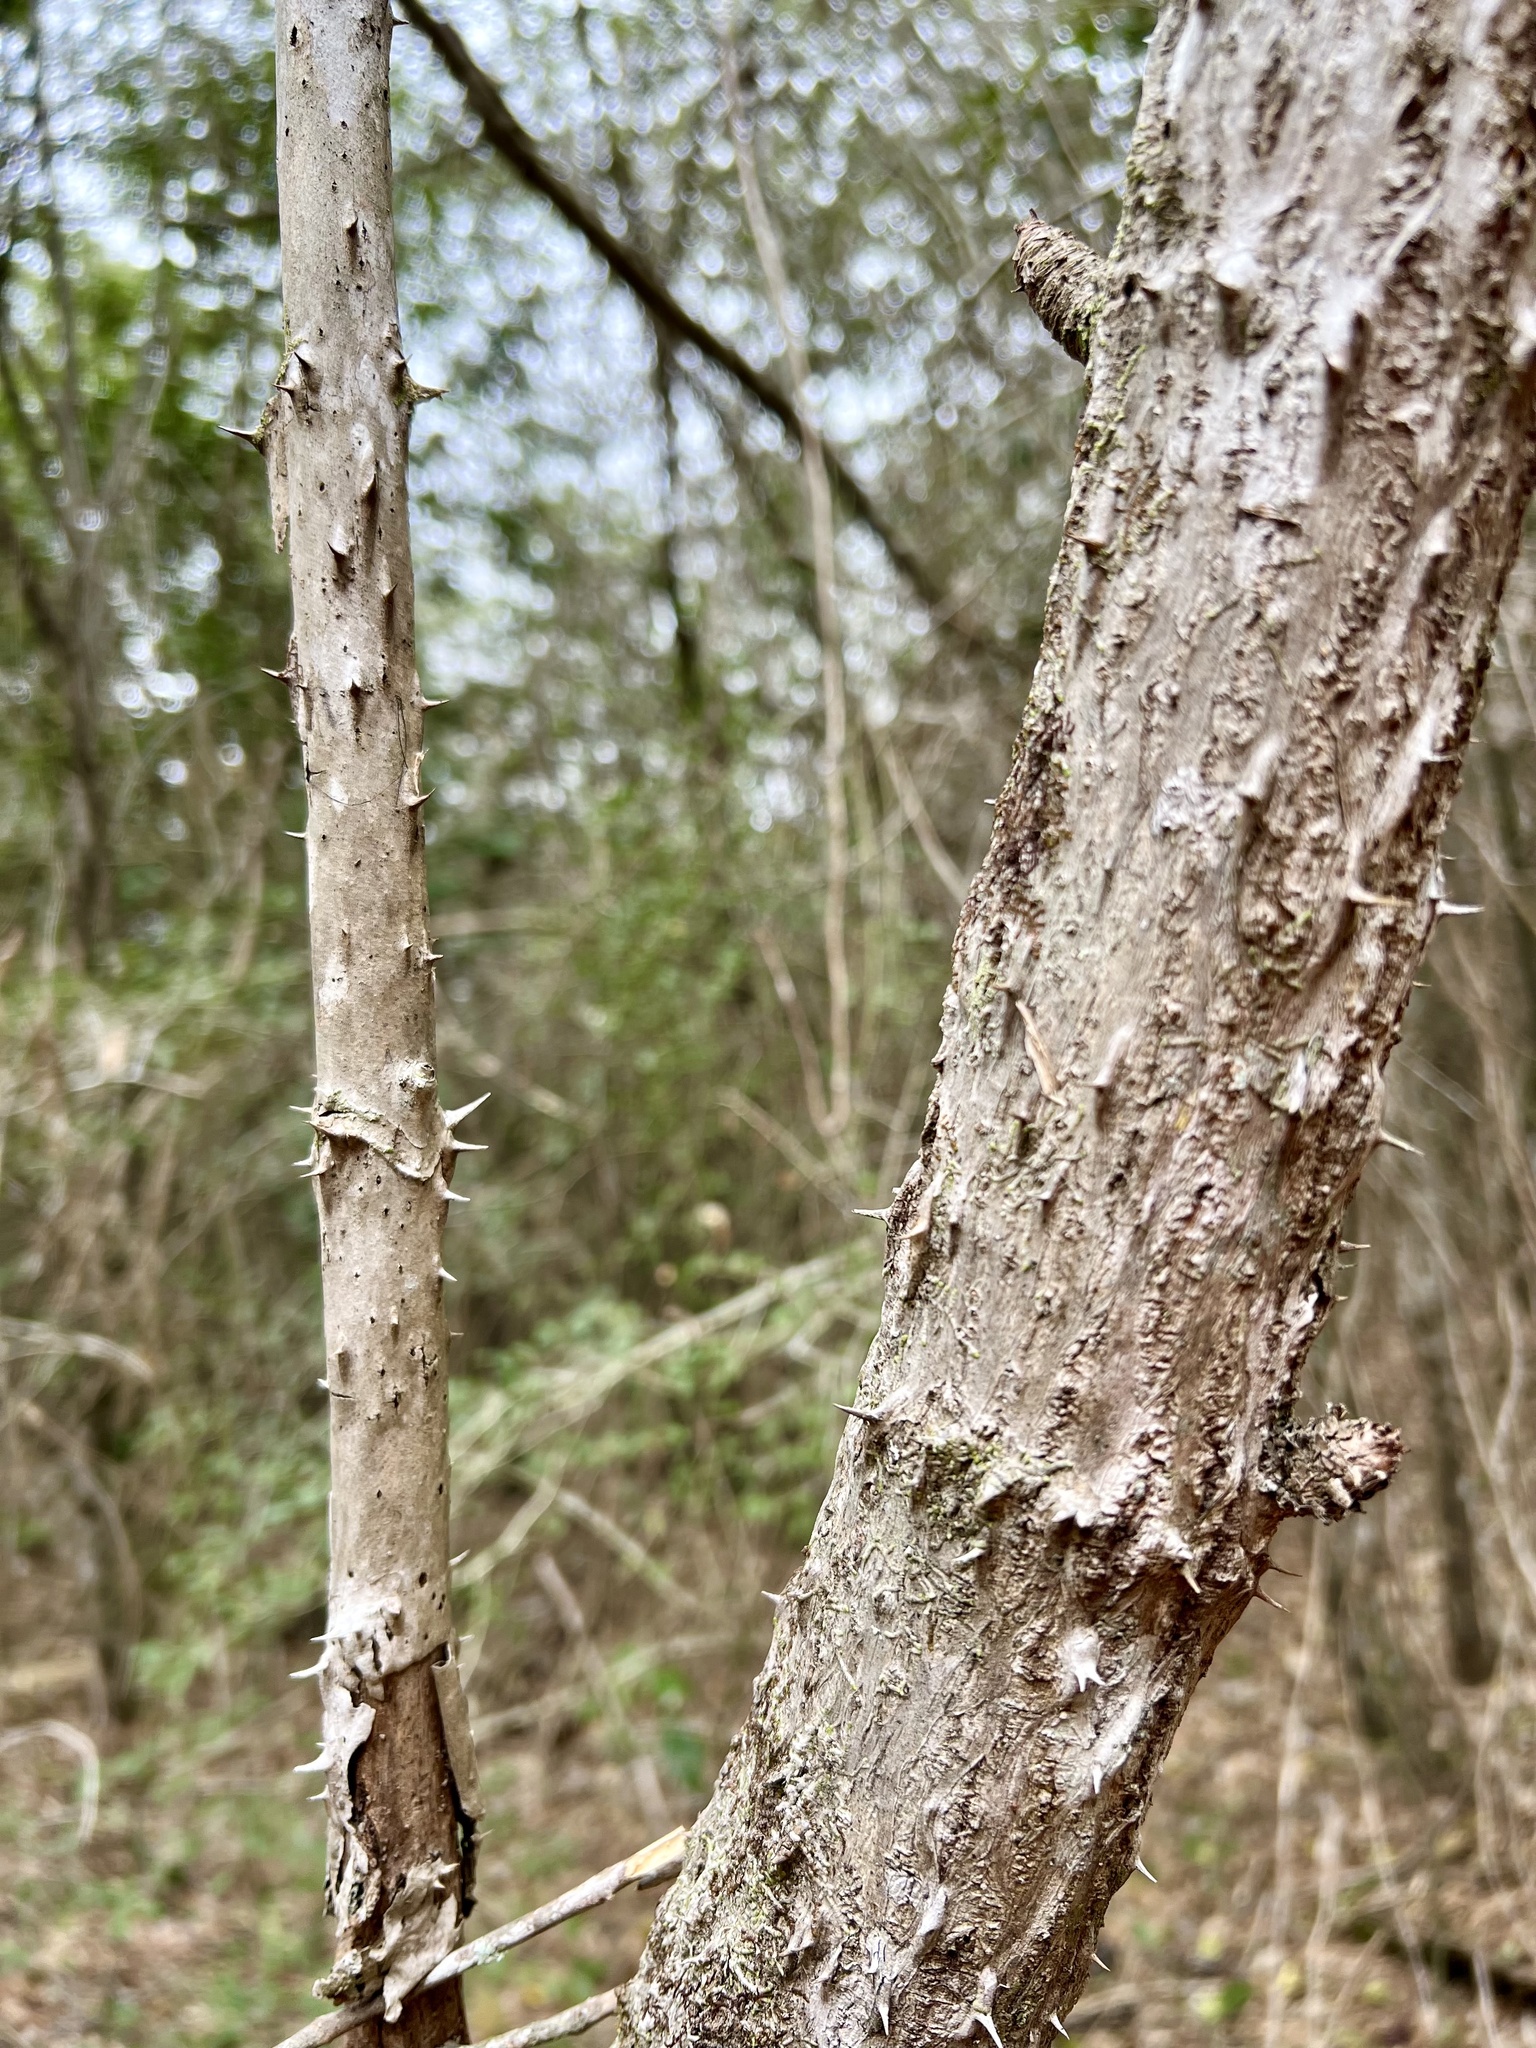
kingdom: Plantae
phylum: Tracheophyta
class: Magnoliopsida
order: Apiales
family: Araliaceae
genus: Aralia
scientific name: Aralia spinosa
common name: Hercules'-club
